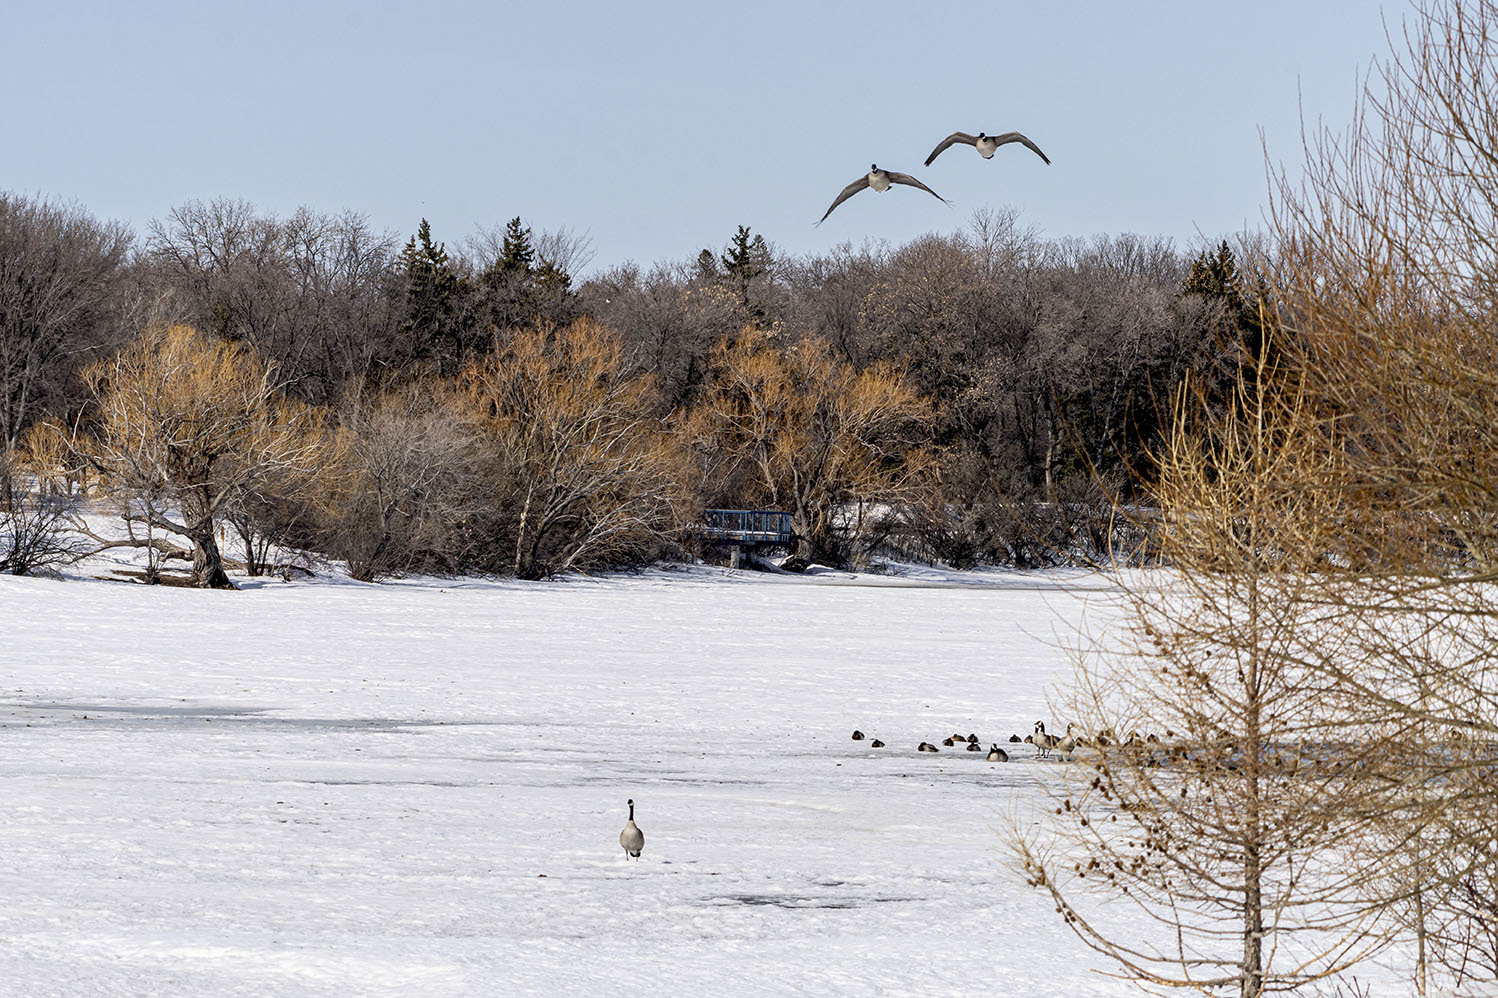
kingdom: Animalia
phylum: Chordata
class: Aves
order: Anseriformes
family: Anatidae
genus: Branta
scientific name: Branta canadensis
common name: Canada goose
